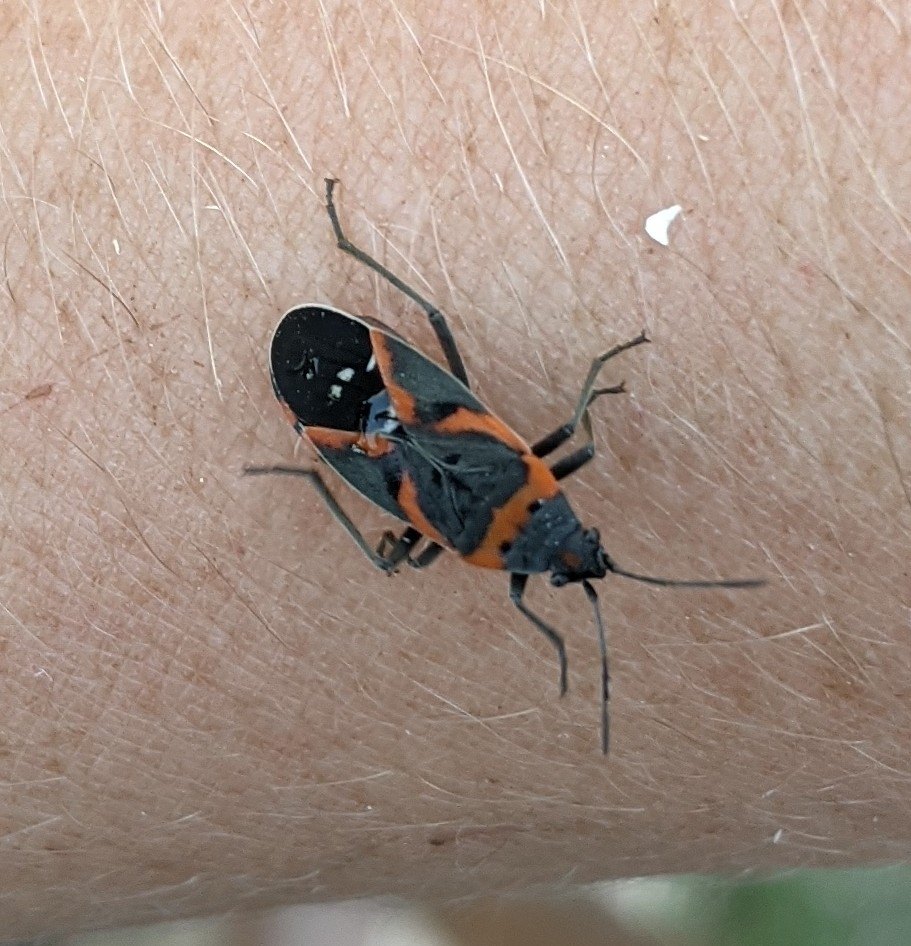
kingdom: Animalia
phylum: Arthropoda
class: Insecta
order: Hemiptera
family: Lygaeidae
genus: Lygaeus
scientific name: Lygaeus kalmii
